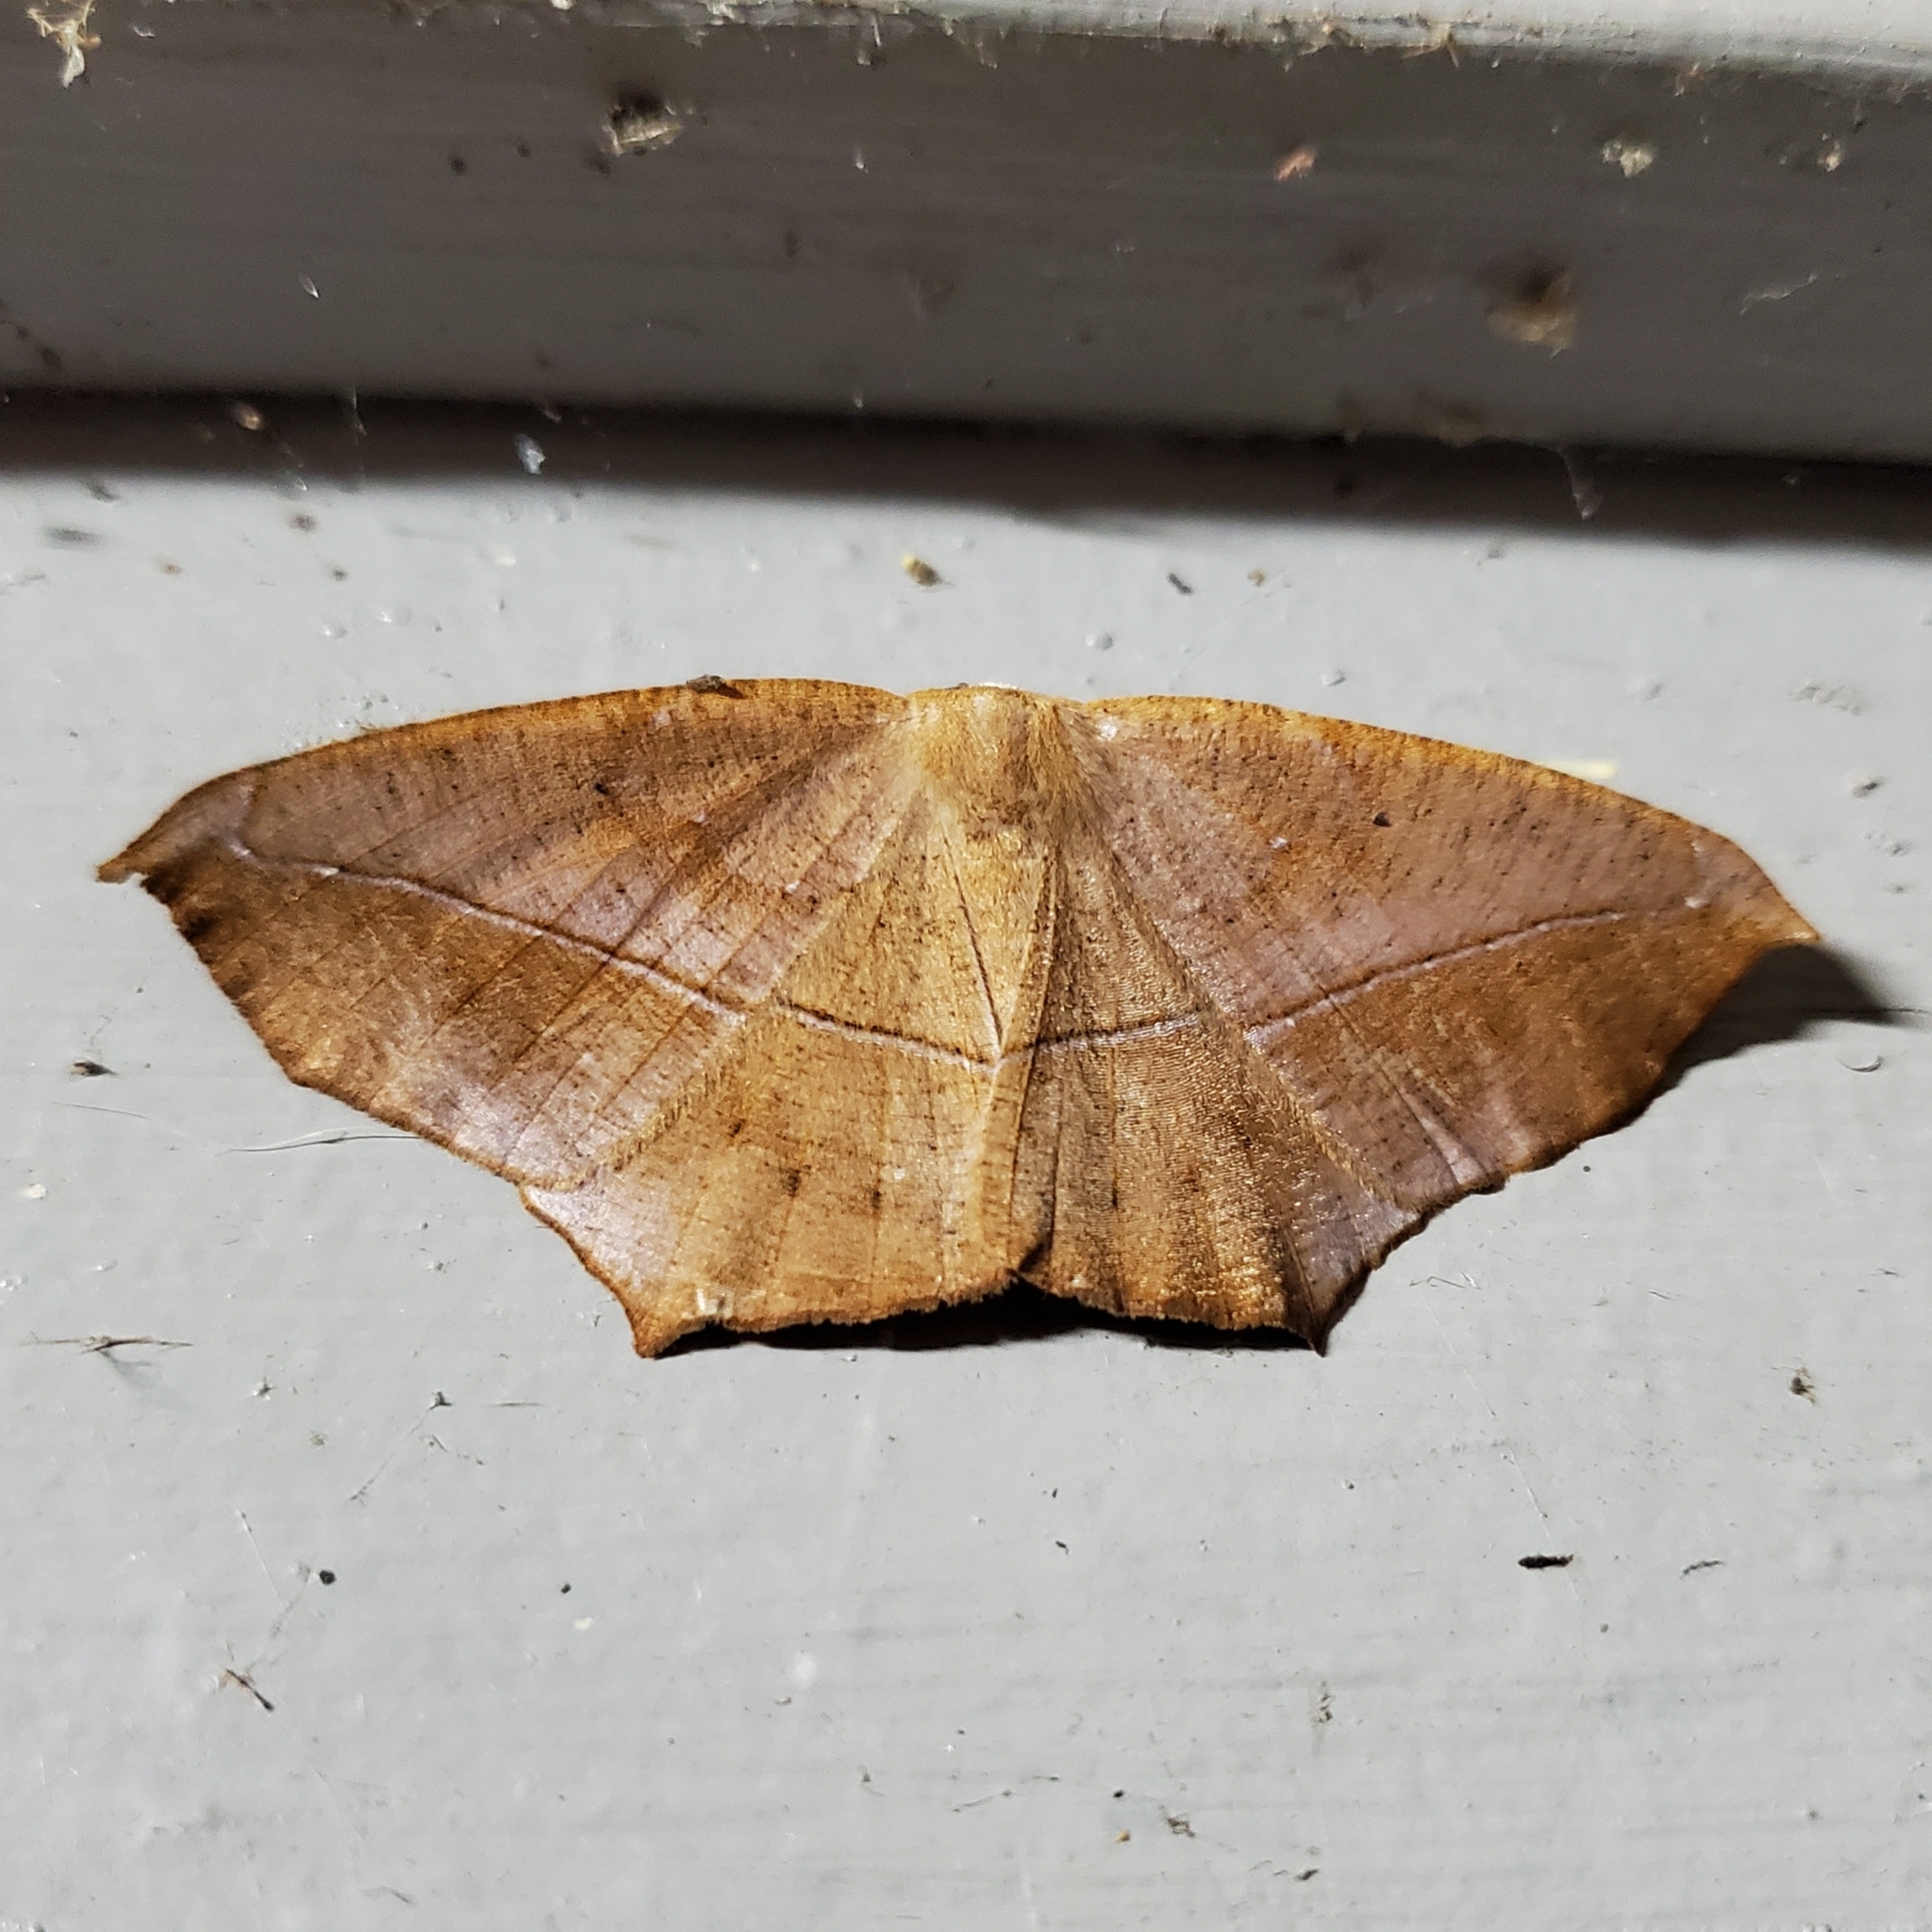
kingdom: Animalia
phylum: Arthropoda
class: Insecta
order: Lepidoptera
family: Geometridae
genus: Prochoerodes
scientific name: Prochoerodes lineola
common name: Large maple spanworm
